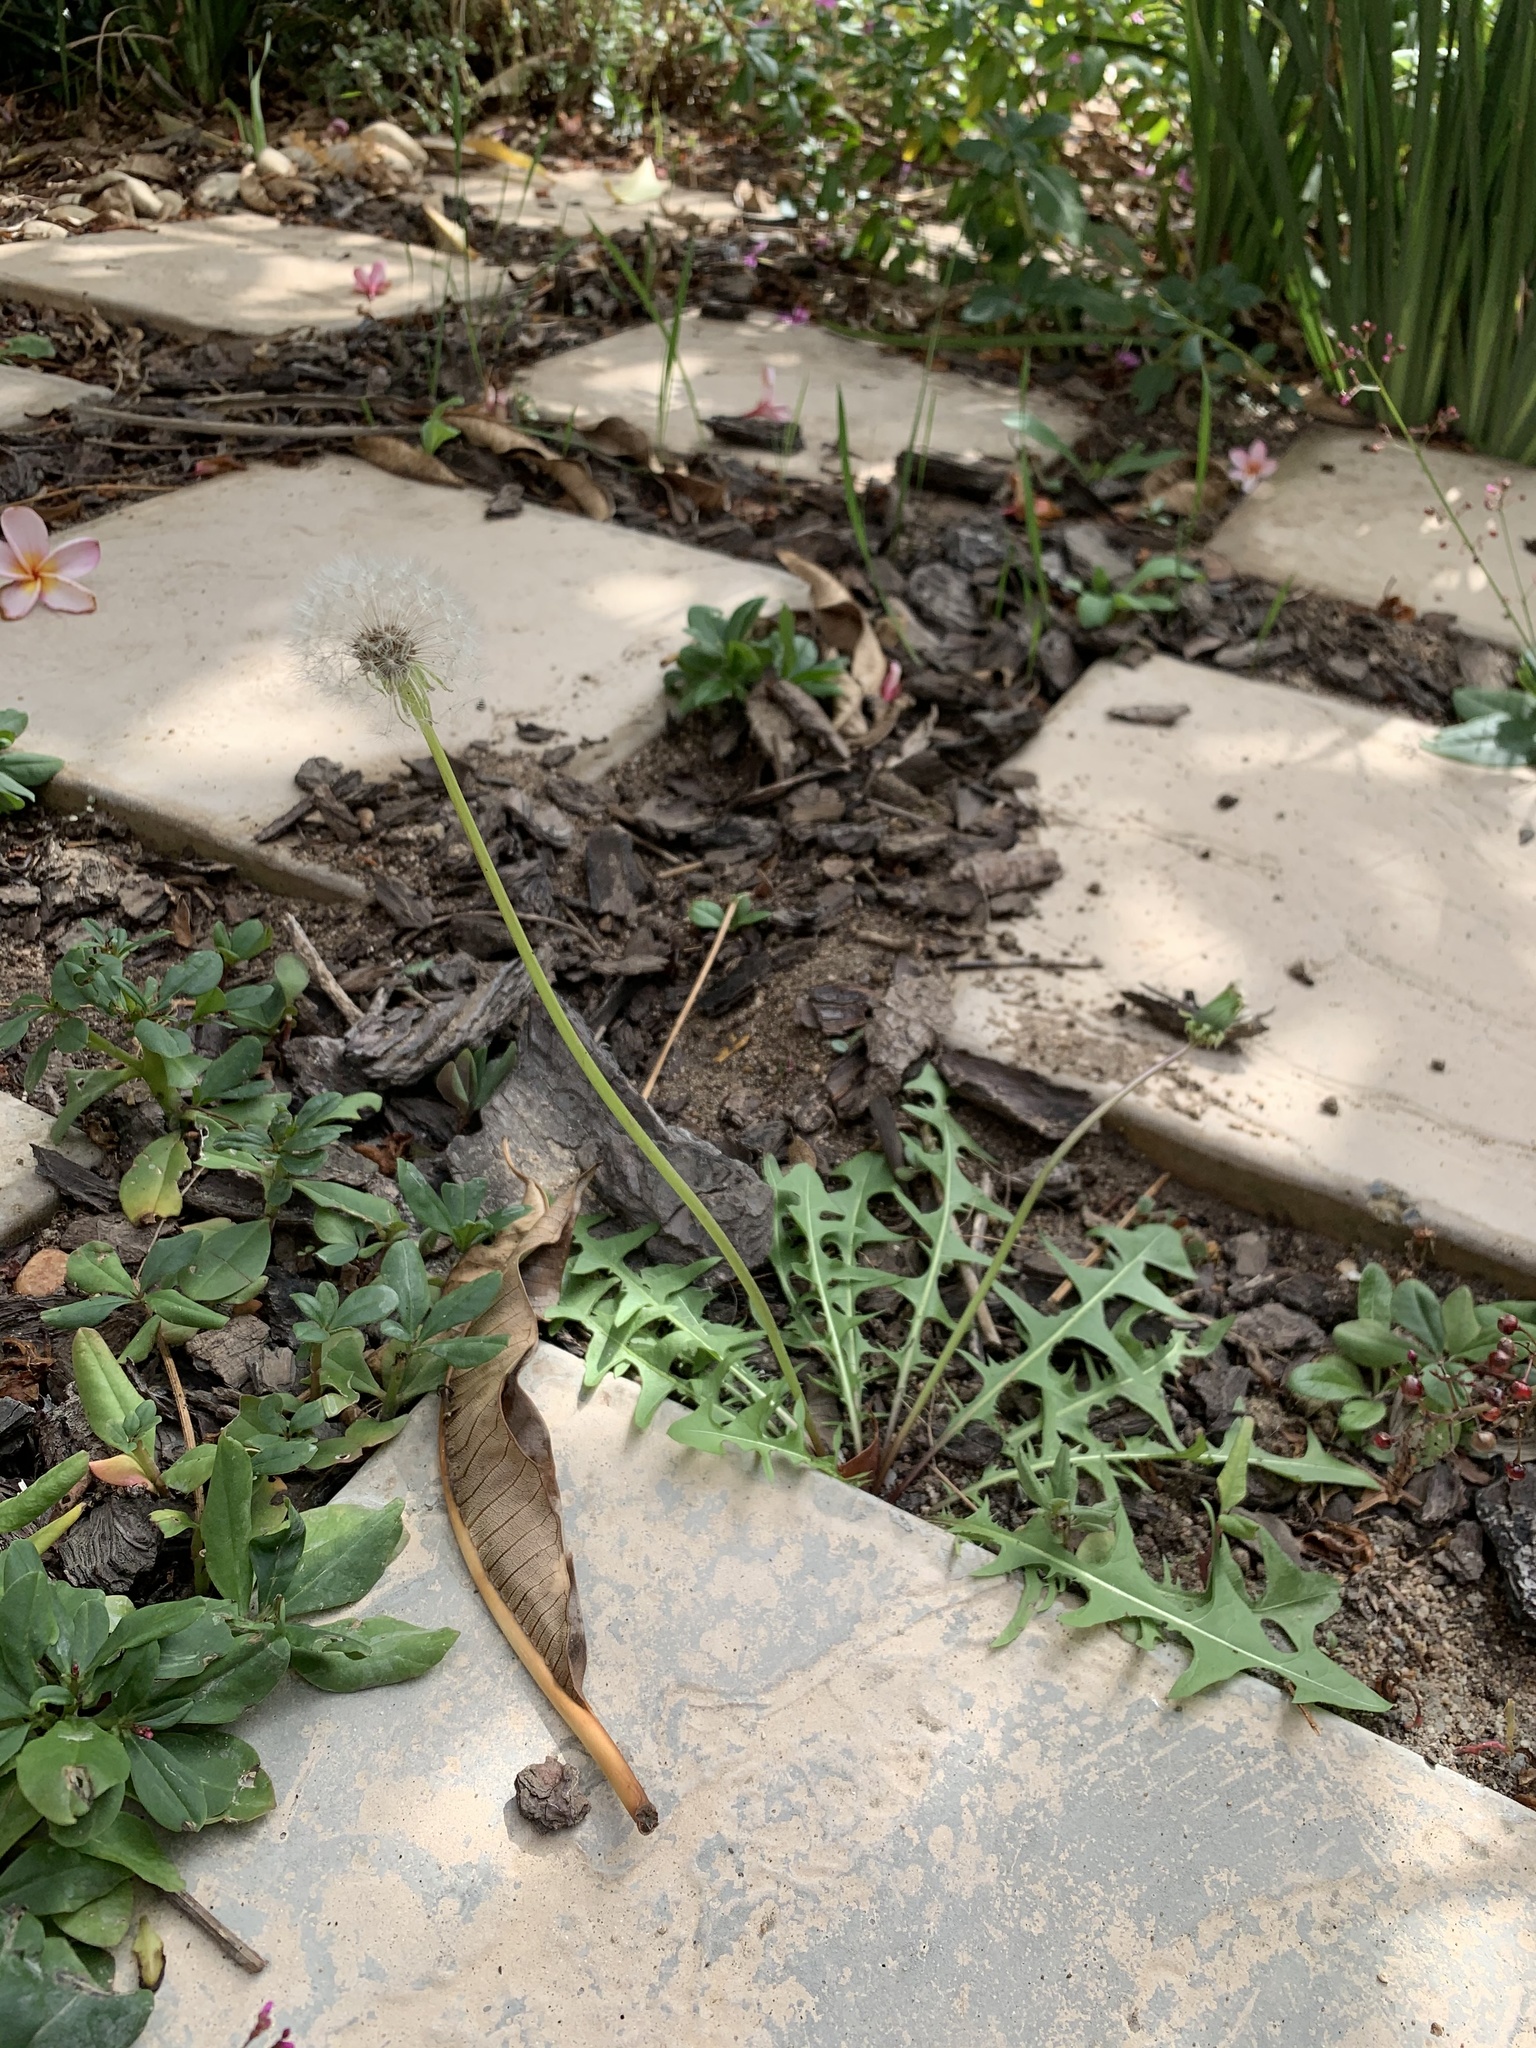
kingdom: Plantae
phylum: Tracheophyta
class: Magnoliopsida
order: Asterales
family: Asteraceae
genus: Taraxacum
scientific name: Taraxacum officinale
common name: Common dandelion
